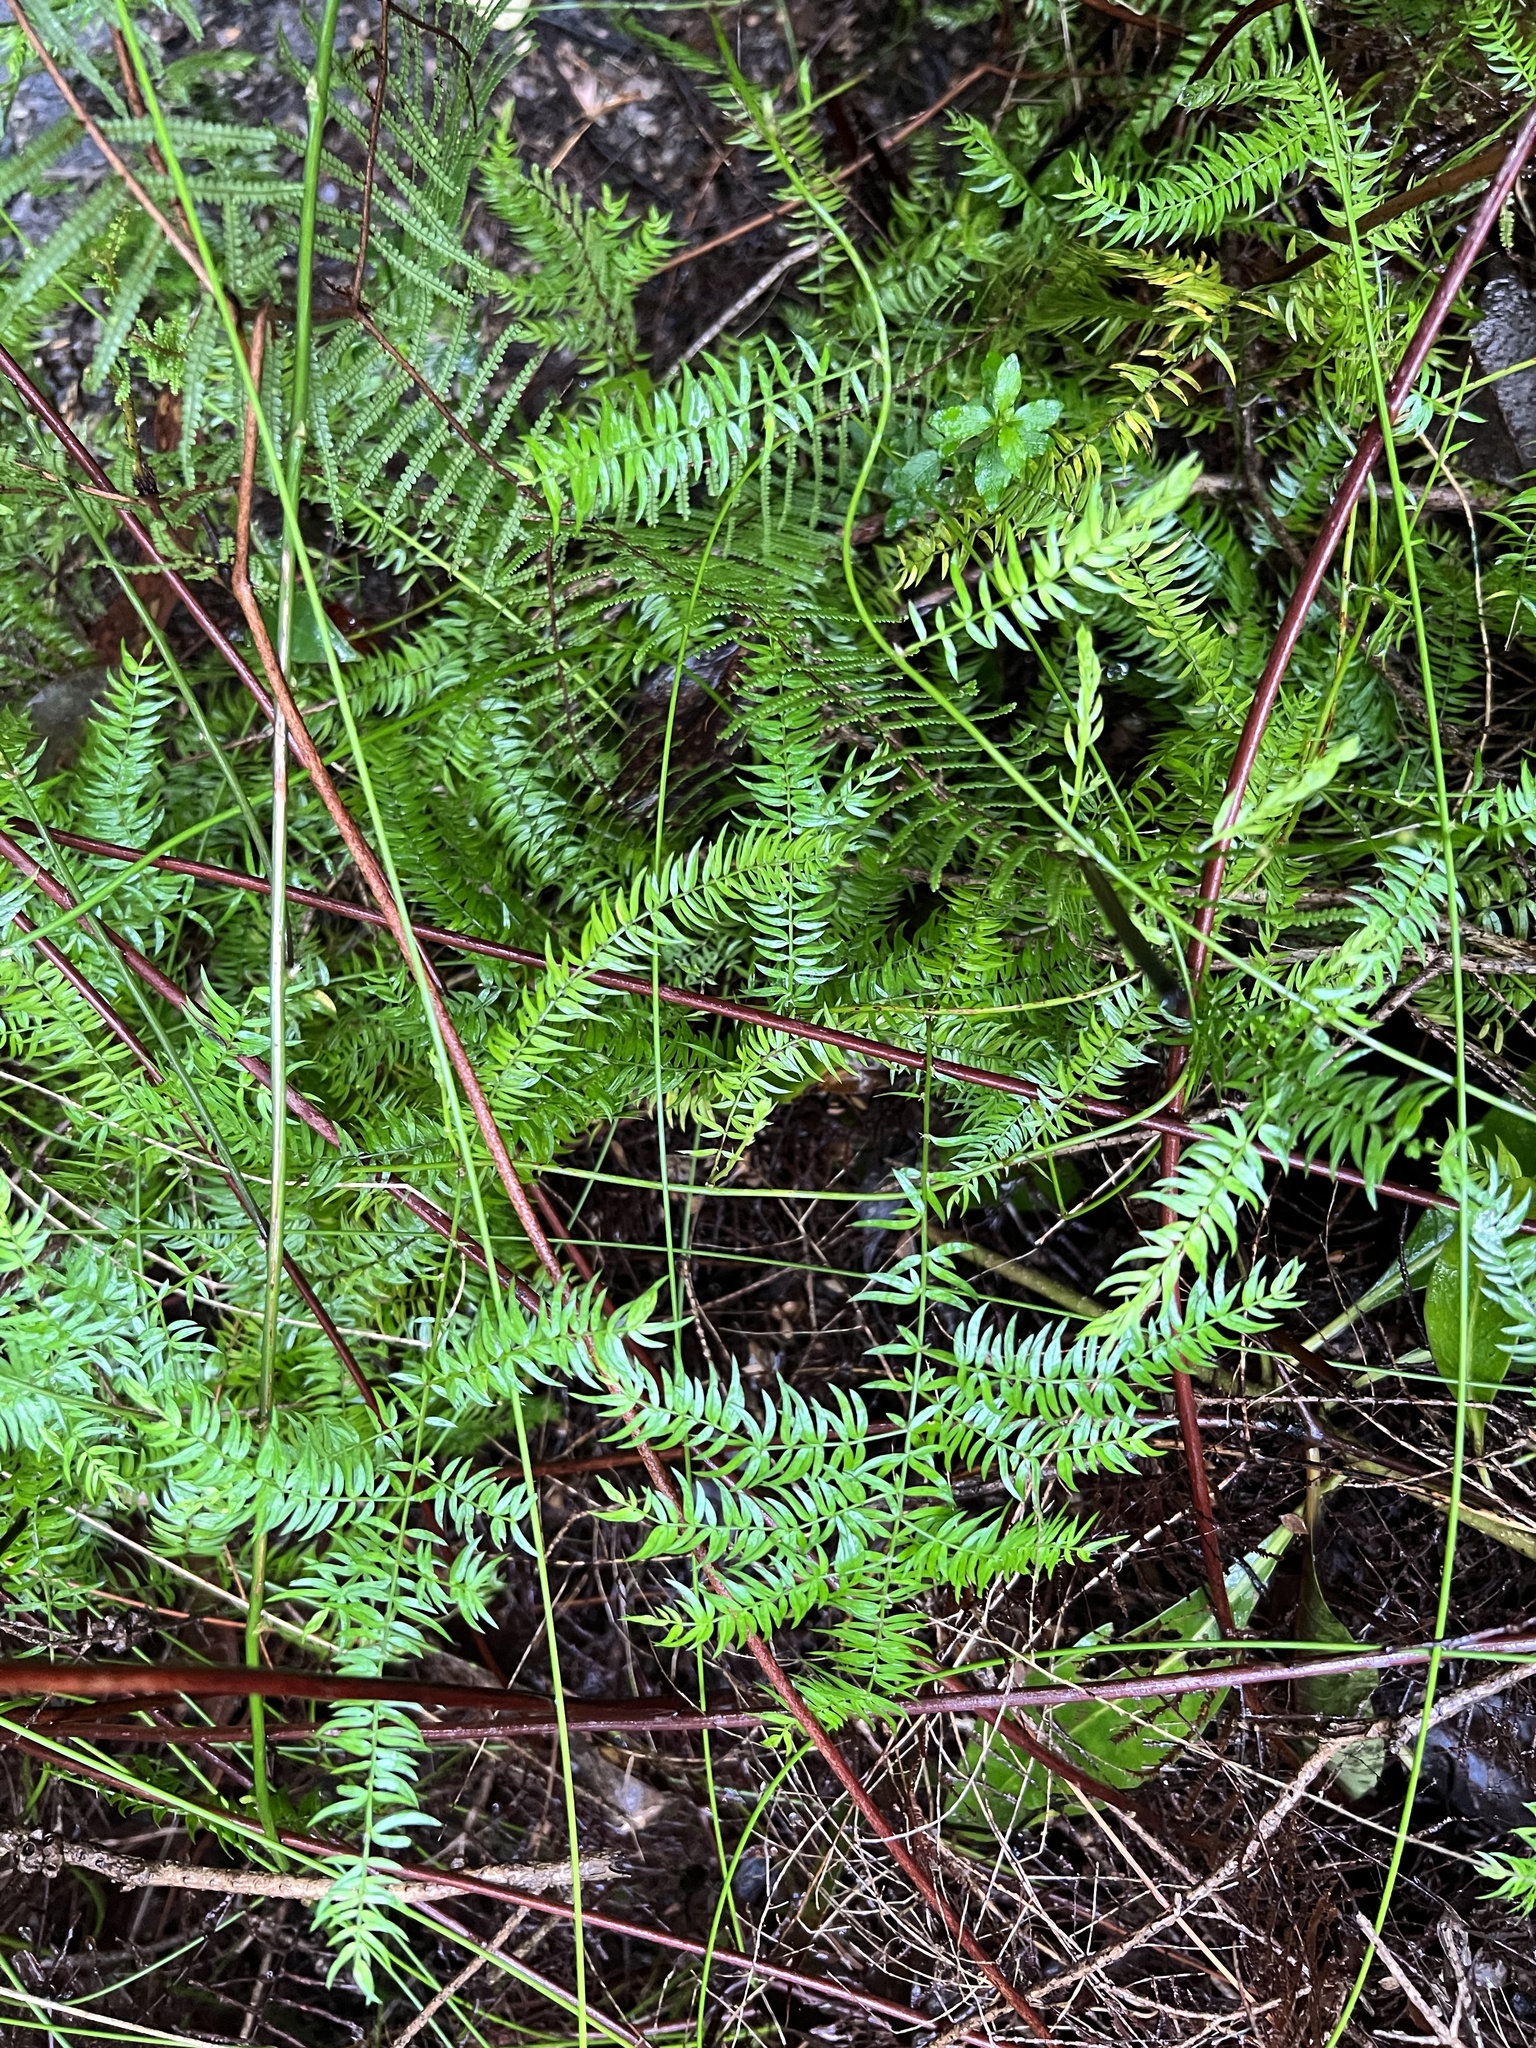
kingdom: Plantae
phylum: Tracheophyta
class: Liliopsida
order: Asparagales
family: Asparagaceae
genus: Asparagus
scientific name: Asparagus scandens
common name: Asparagus-fern
